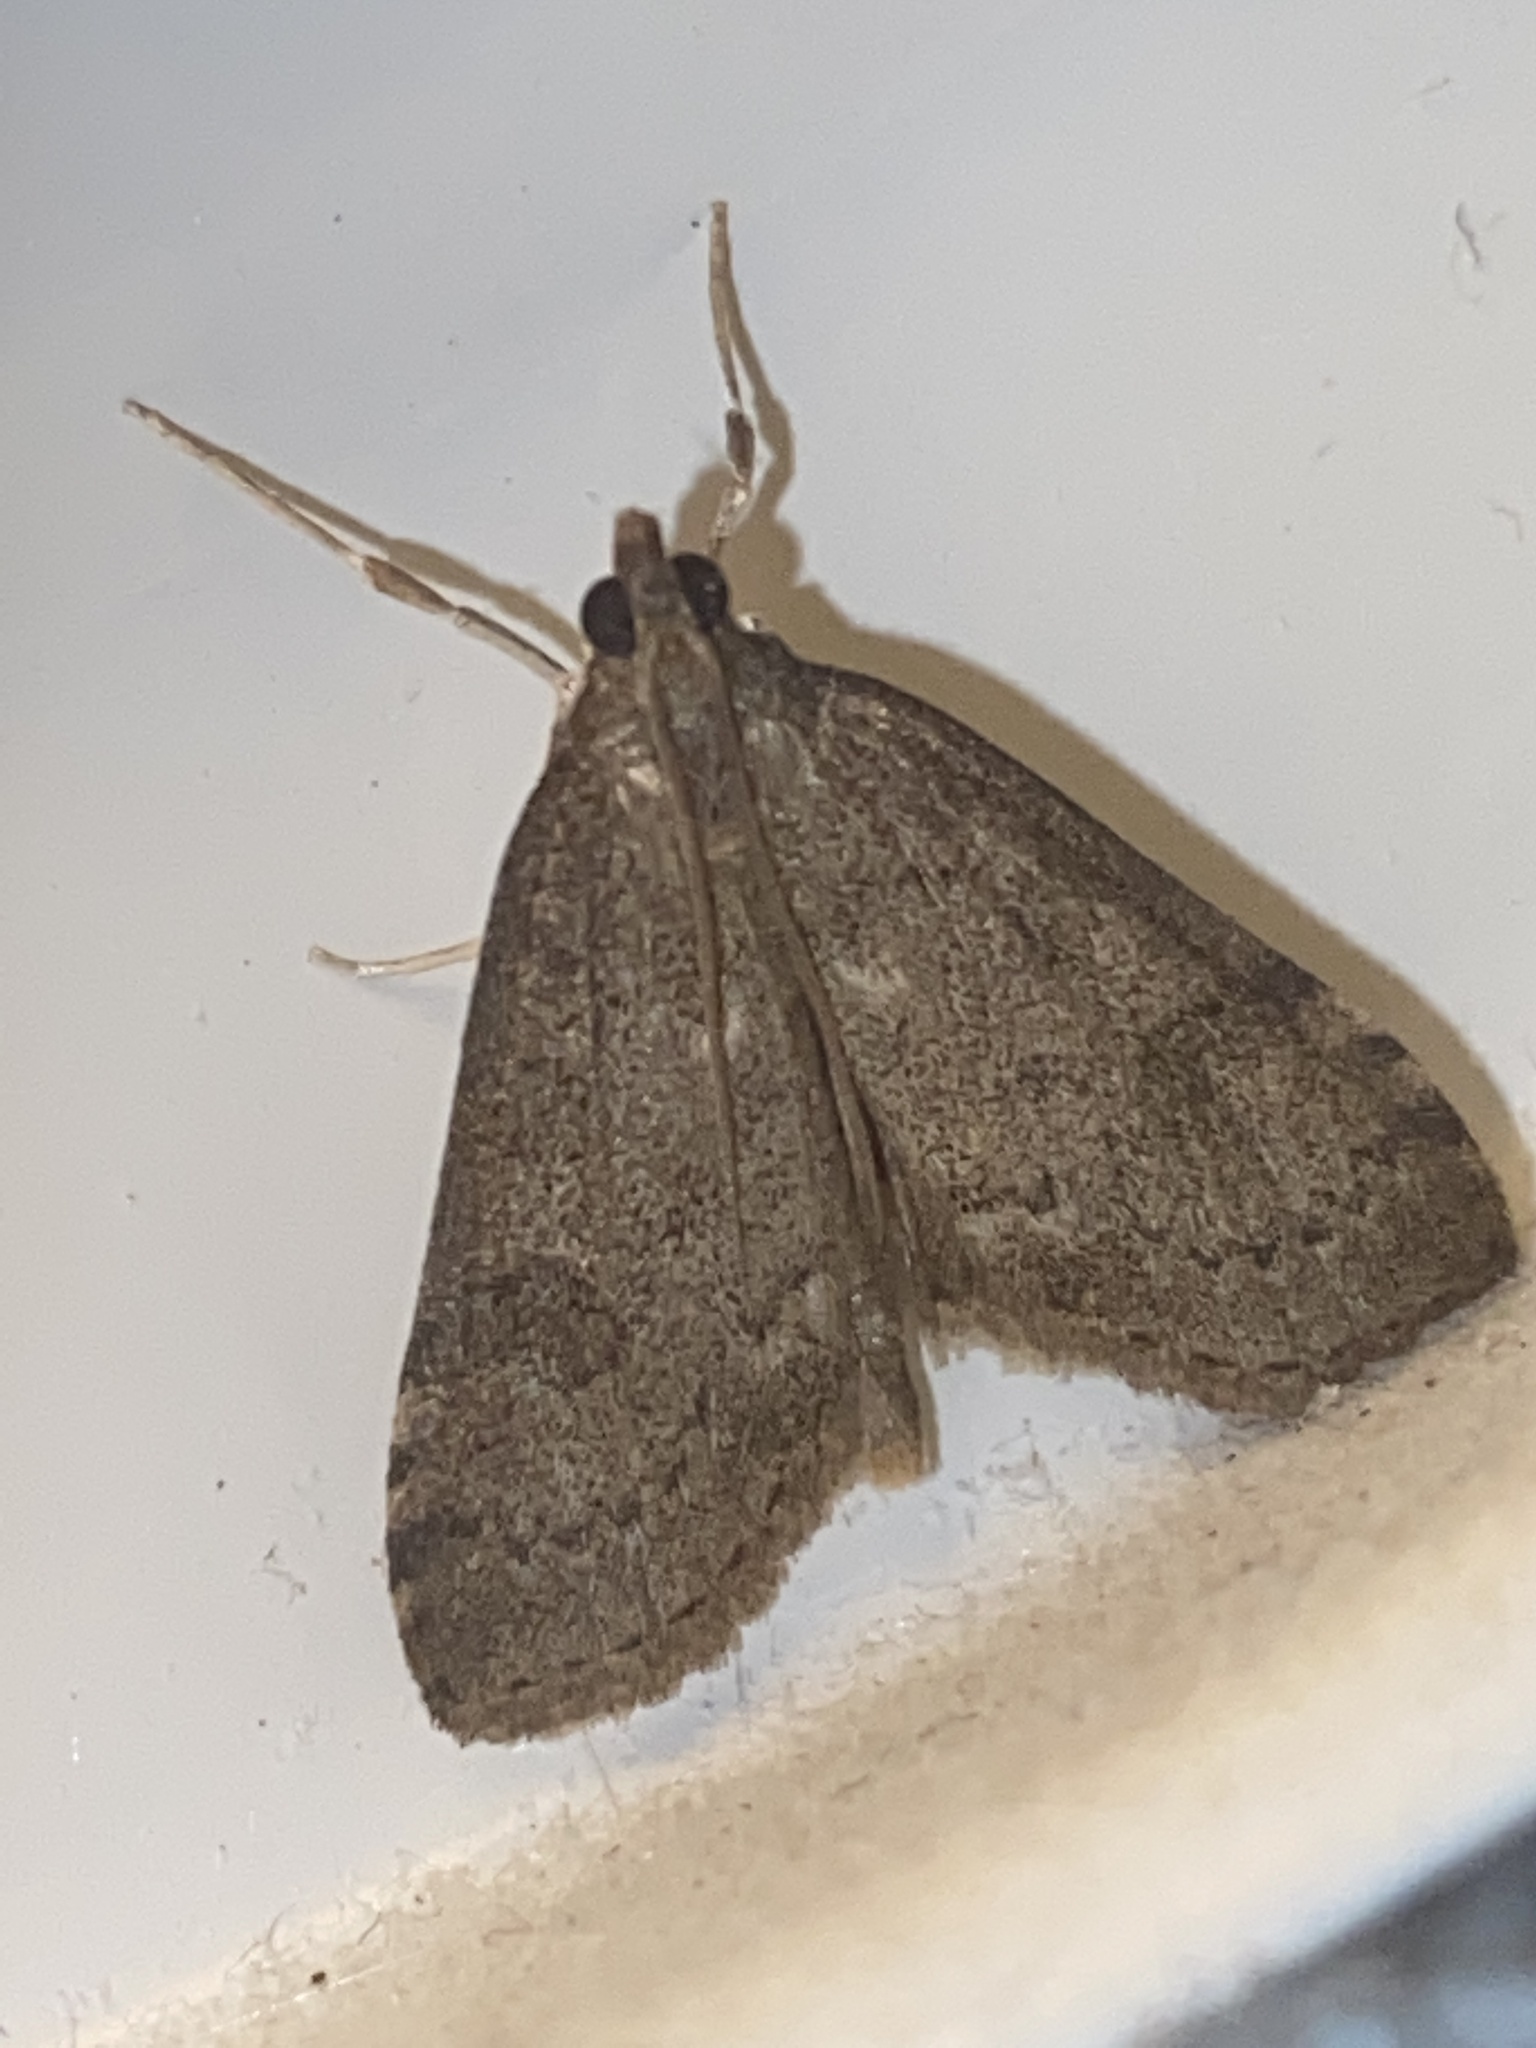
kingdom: Animalia
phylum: Arthropoda
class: Insecta
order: Lepidoptera
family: Crambidae
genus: Udea
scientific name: Udea prunalis
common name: Dusky pearl
